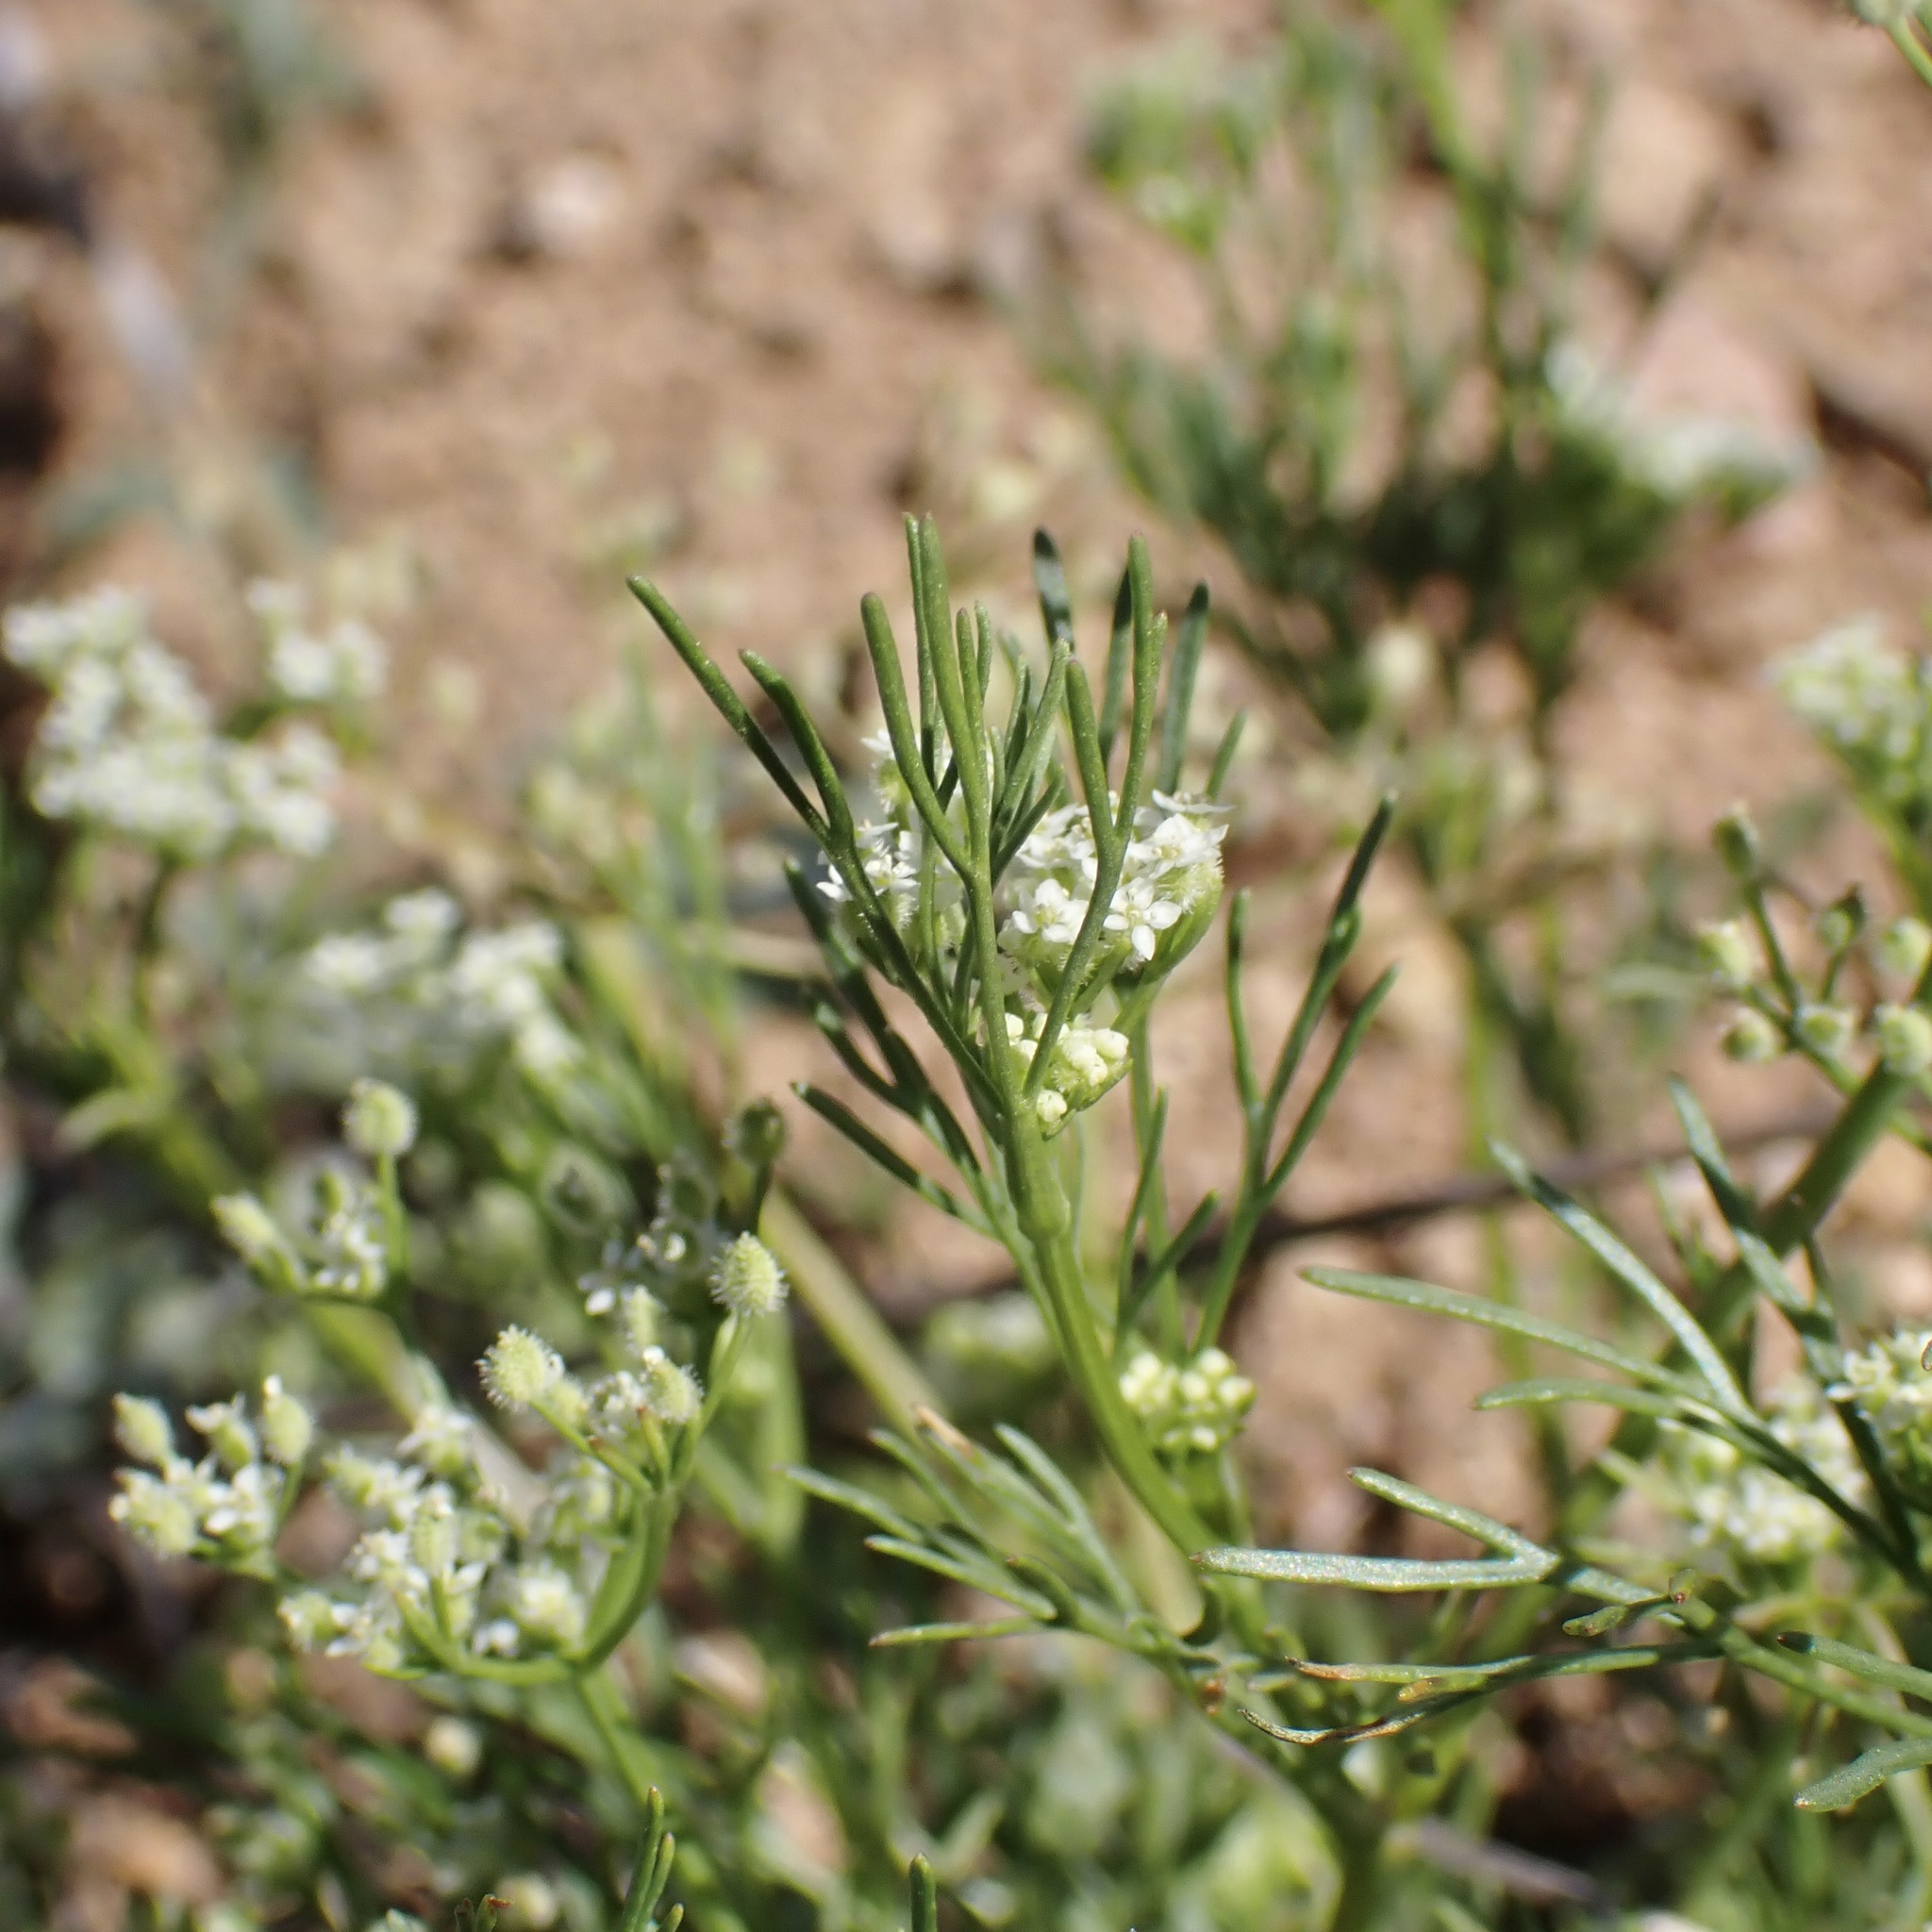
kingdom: Plantae
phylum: Tracheophyta
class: Magnoliopsida
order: Apiales
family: Apiaceae
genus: Spermolepis
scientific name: Spermolepis lateriflora
